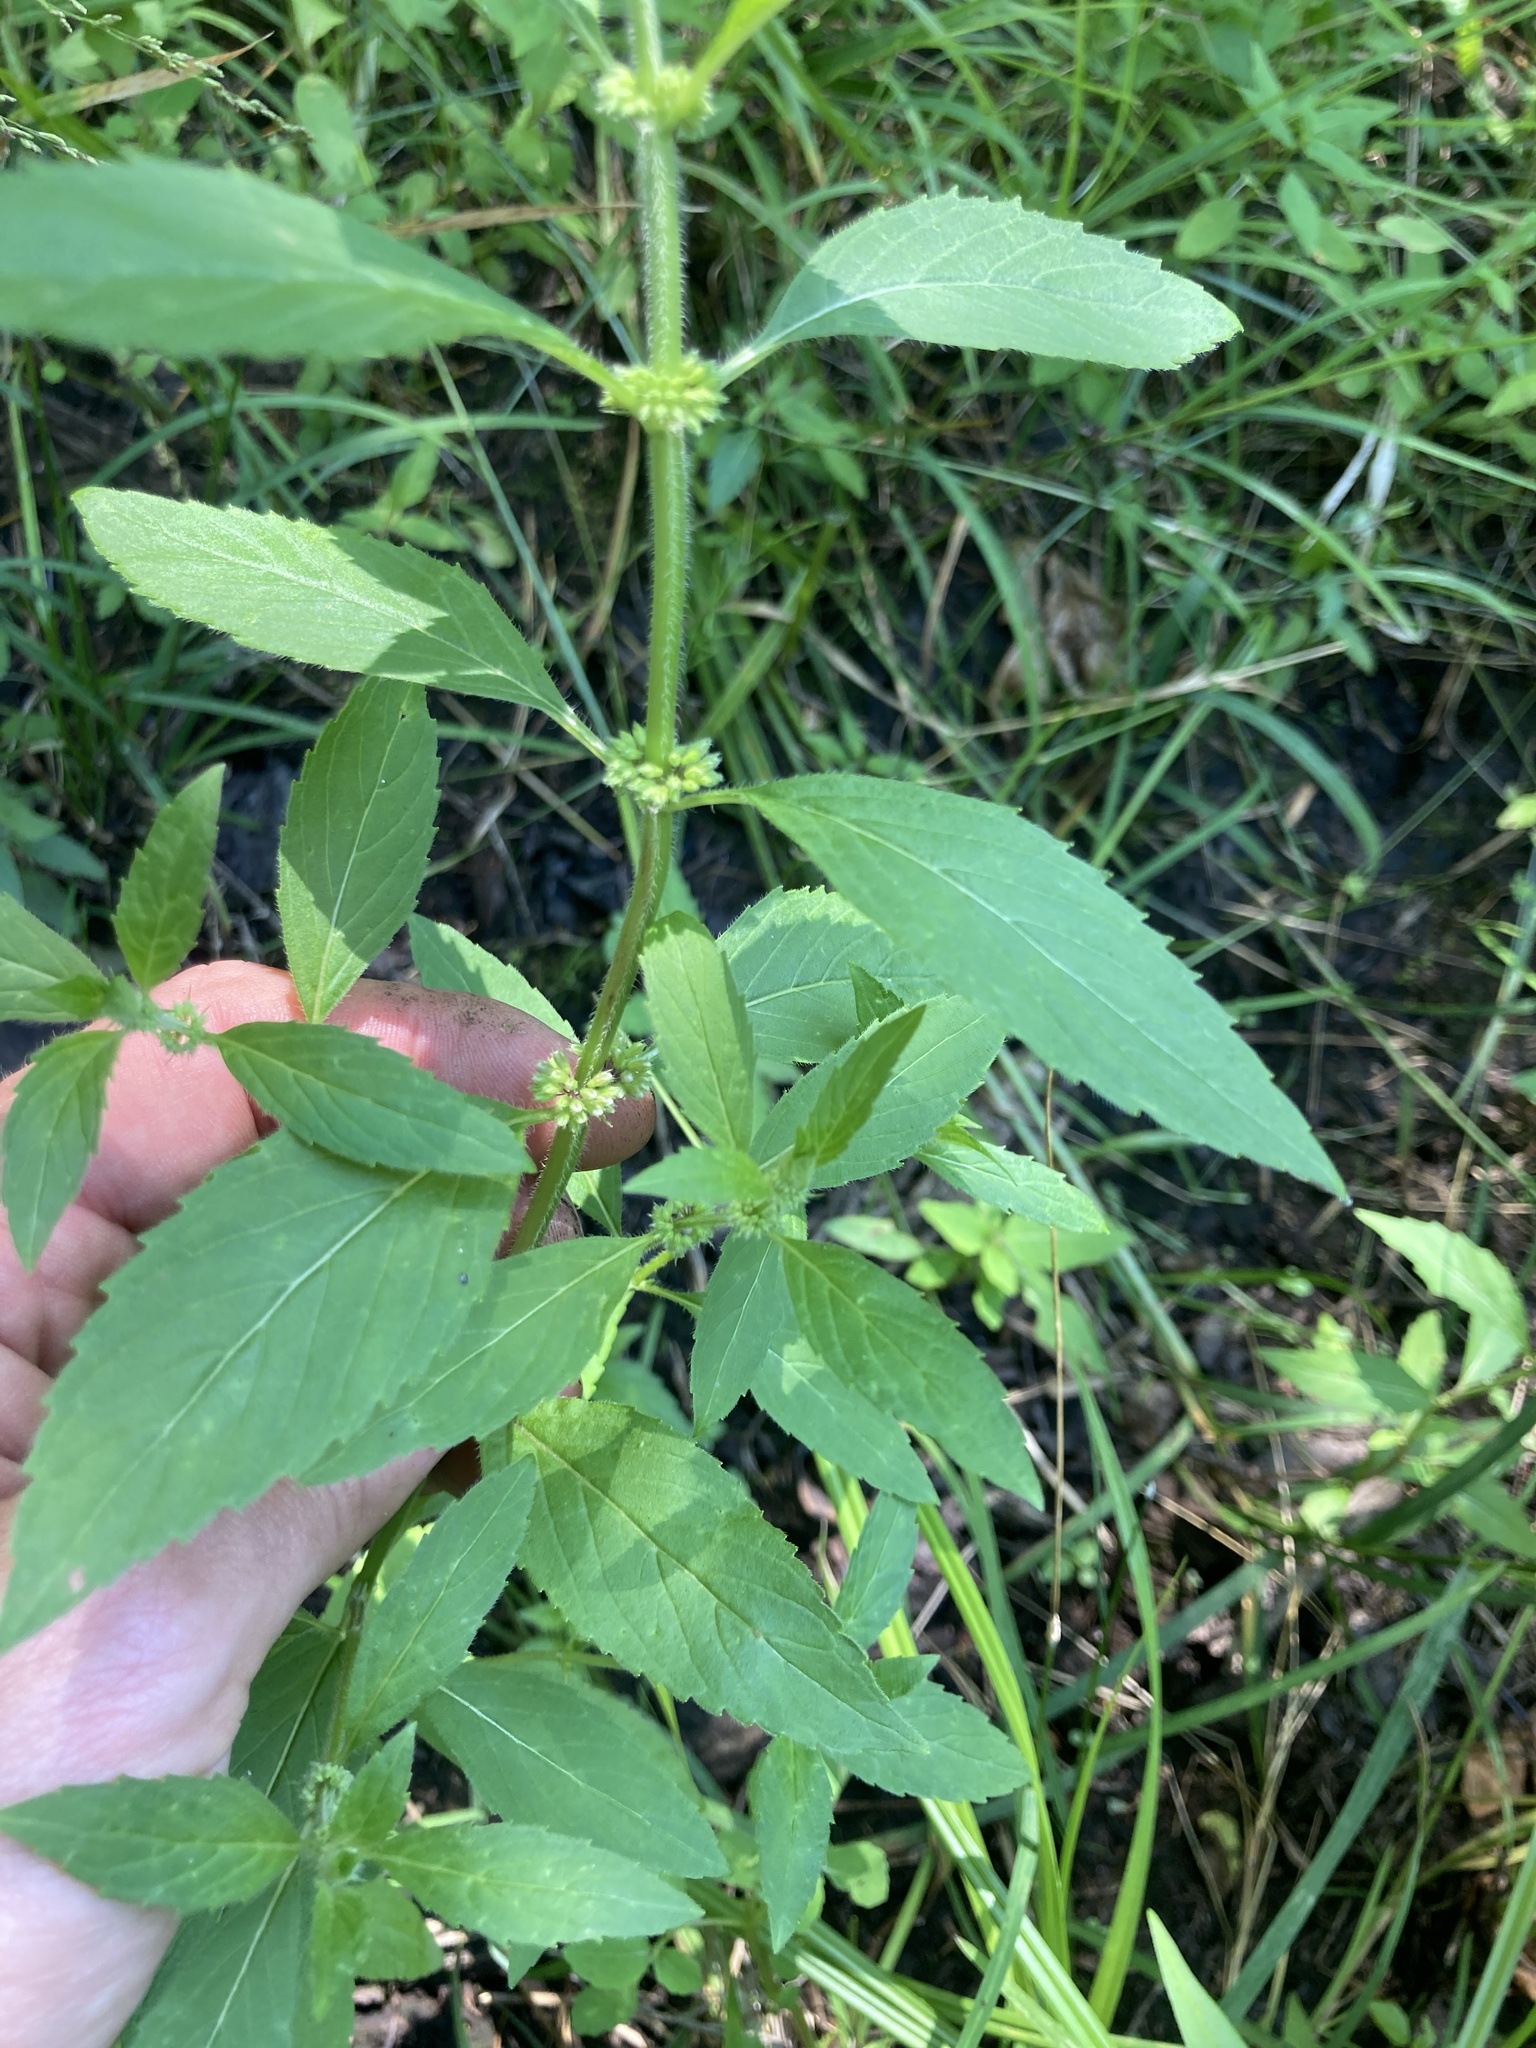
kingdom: Plantae
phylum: Tracheophyta
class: Magnoliopsida
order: Lamiales
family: Lamiaceae
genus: Mentha
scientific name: Mentha canadensis
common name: American corn mint
